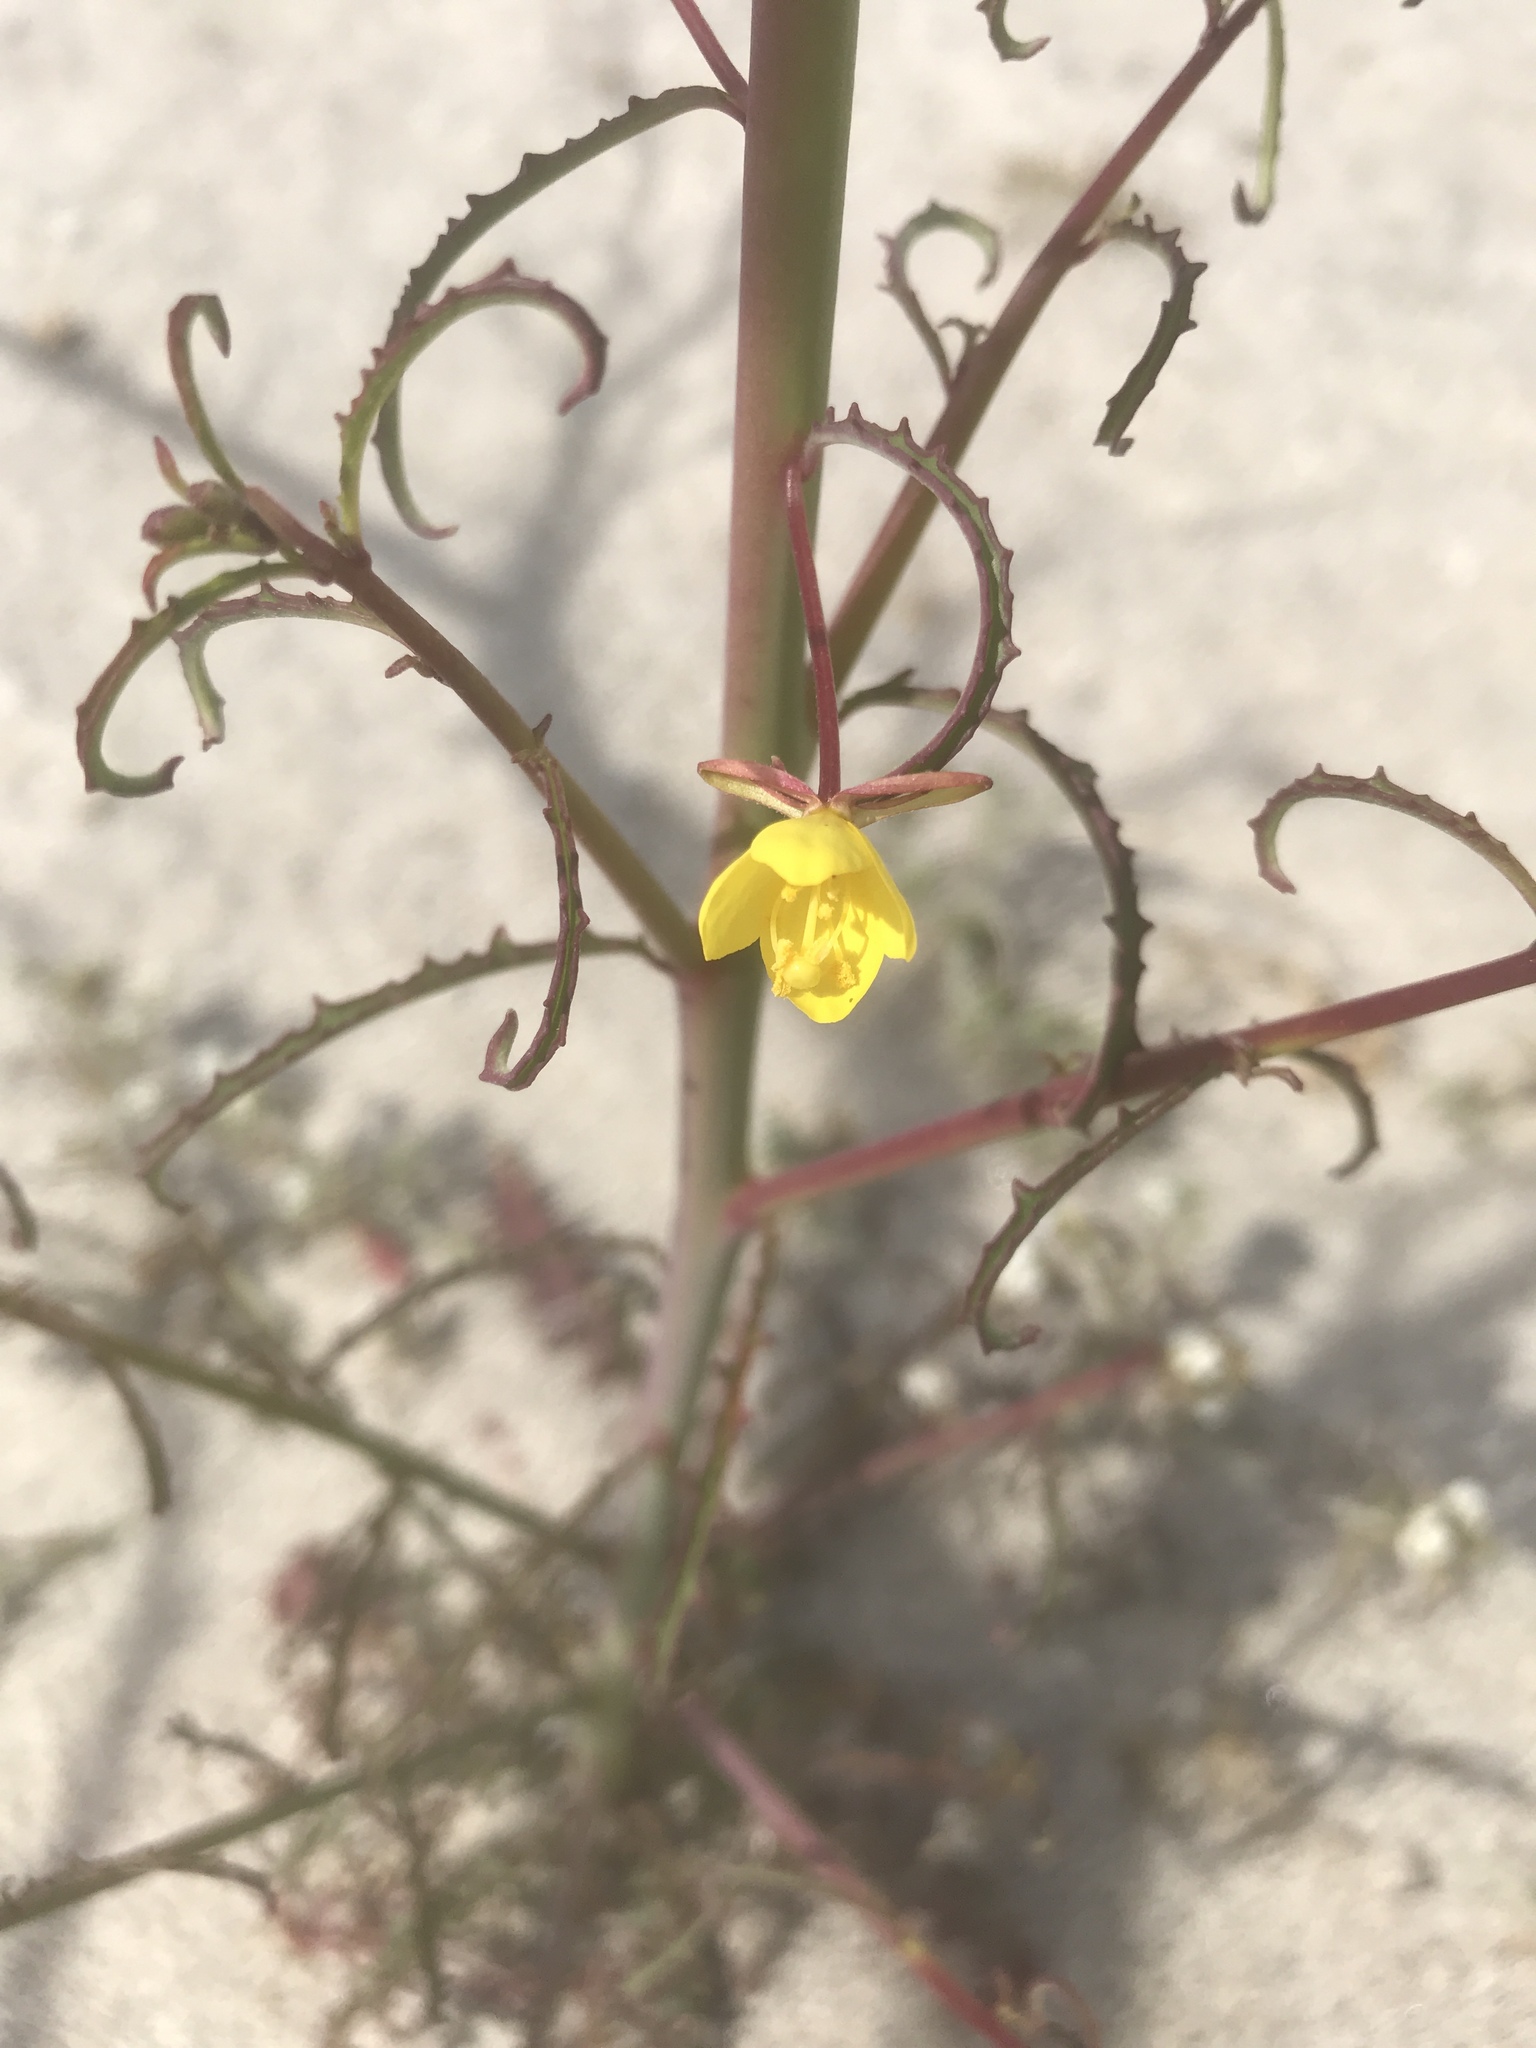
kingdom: Plantae
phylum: Tracheophyta
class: Magnoliopsida
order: Myrtales
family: Onagraceae
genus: Eulobus
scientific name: Eulobus californicus
